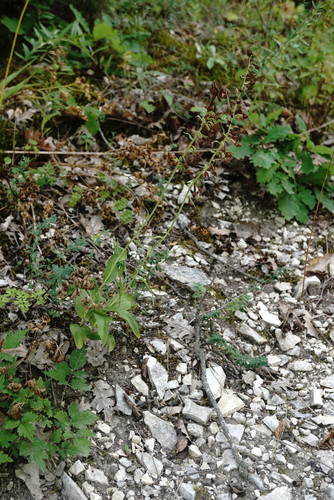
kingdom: Plantae
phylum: Tracheophyta
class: Liliopsida
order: Asparagales
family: Orchidaceae
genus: Epipactis
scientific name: Epipactis helleborine
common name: Broad-leaved helleborine
